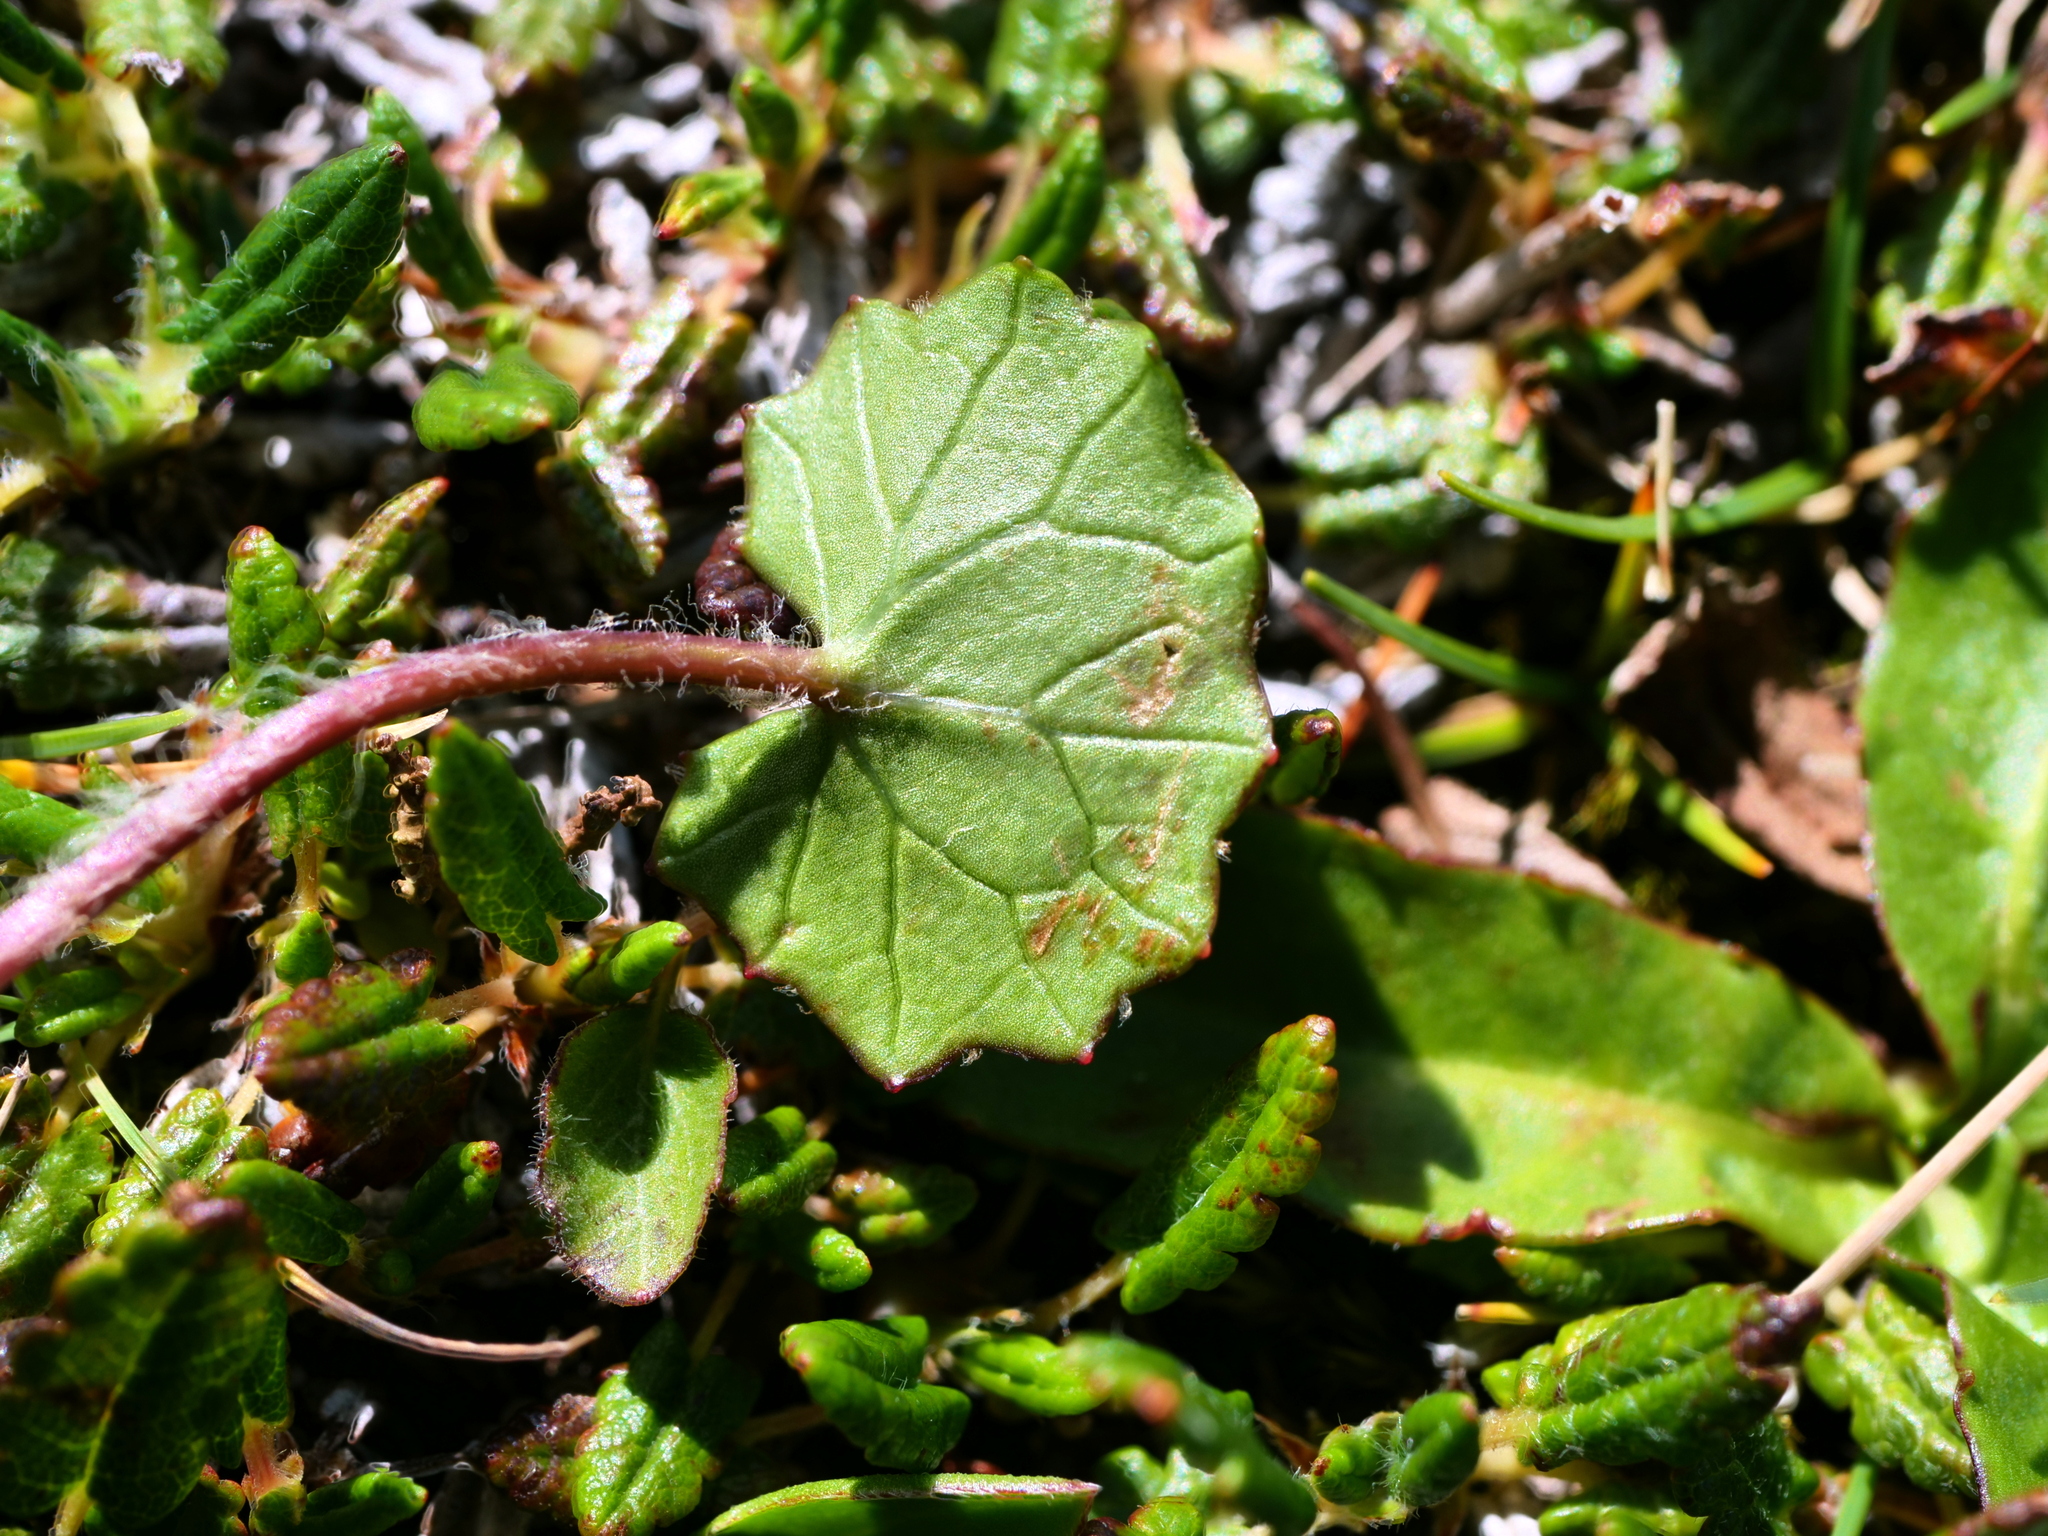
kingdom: Plantae
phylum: Tracheophyta
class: Magnoliopsida
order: Asterales
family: Asteraceae
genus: Homogyne
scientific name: Homogyne alpina
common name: Purple colt's-foot
